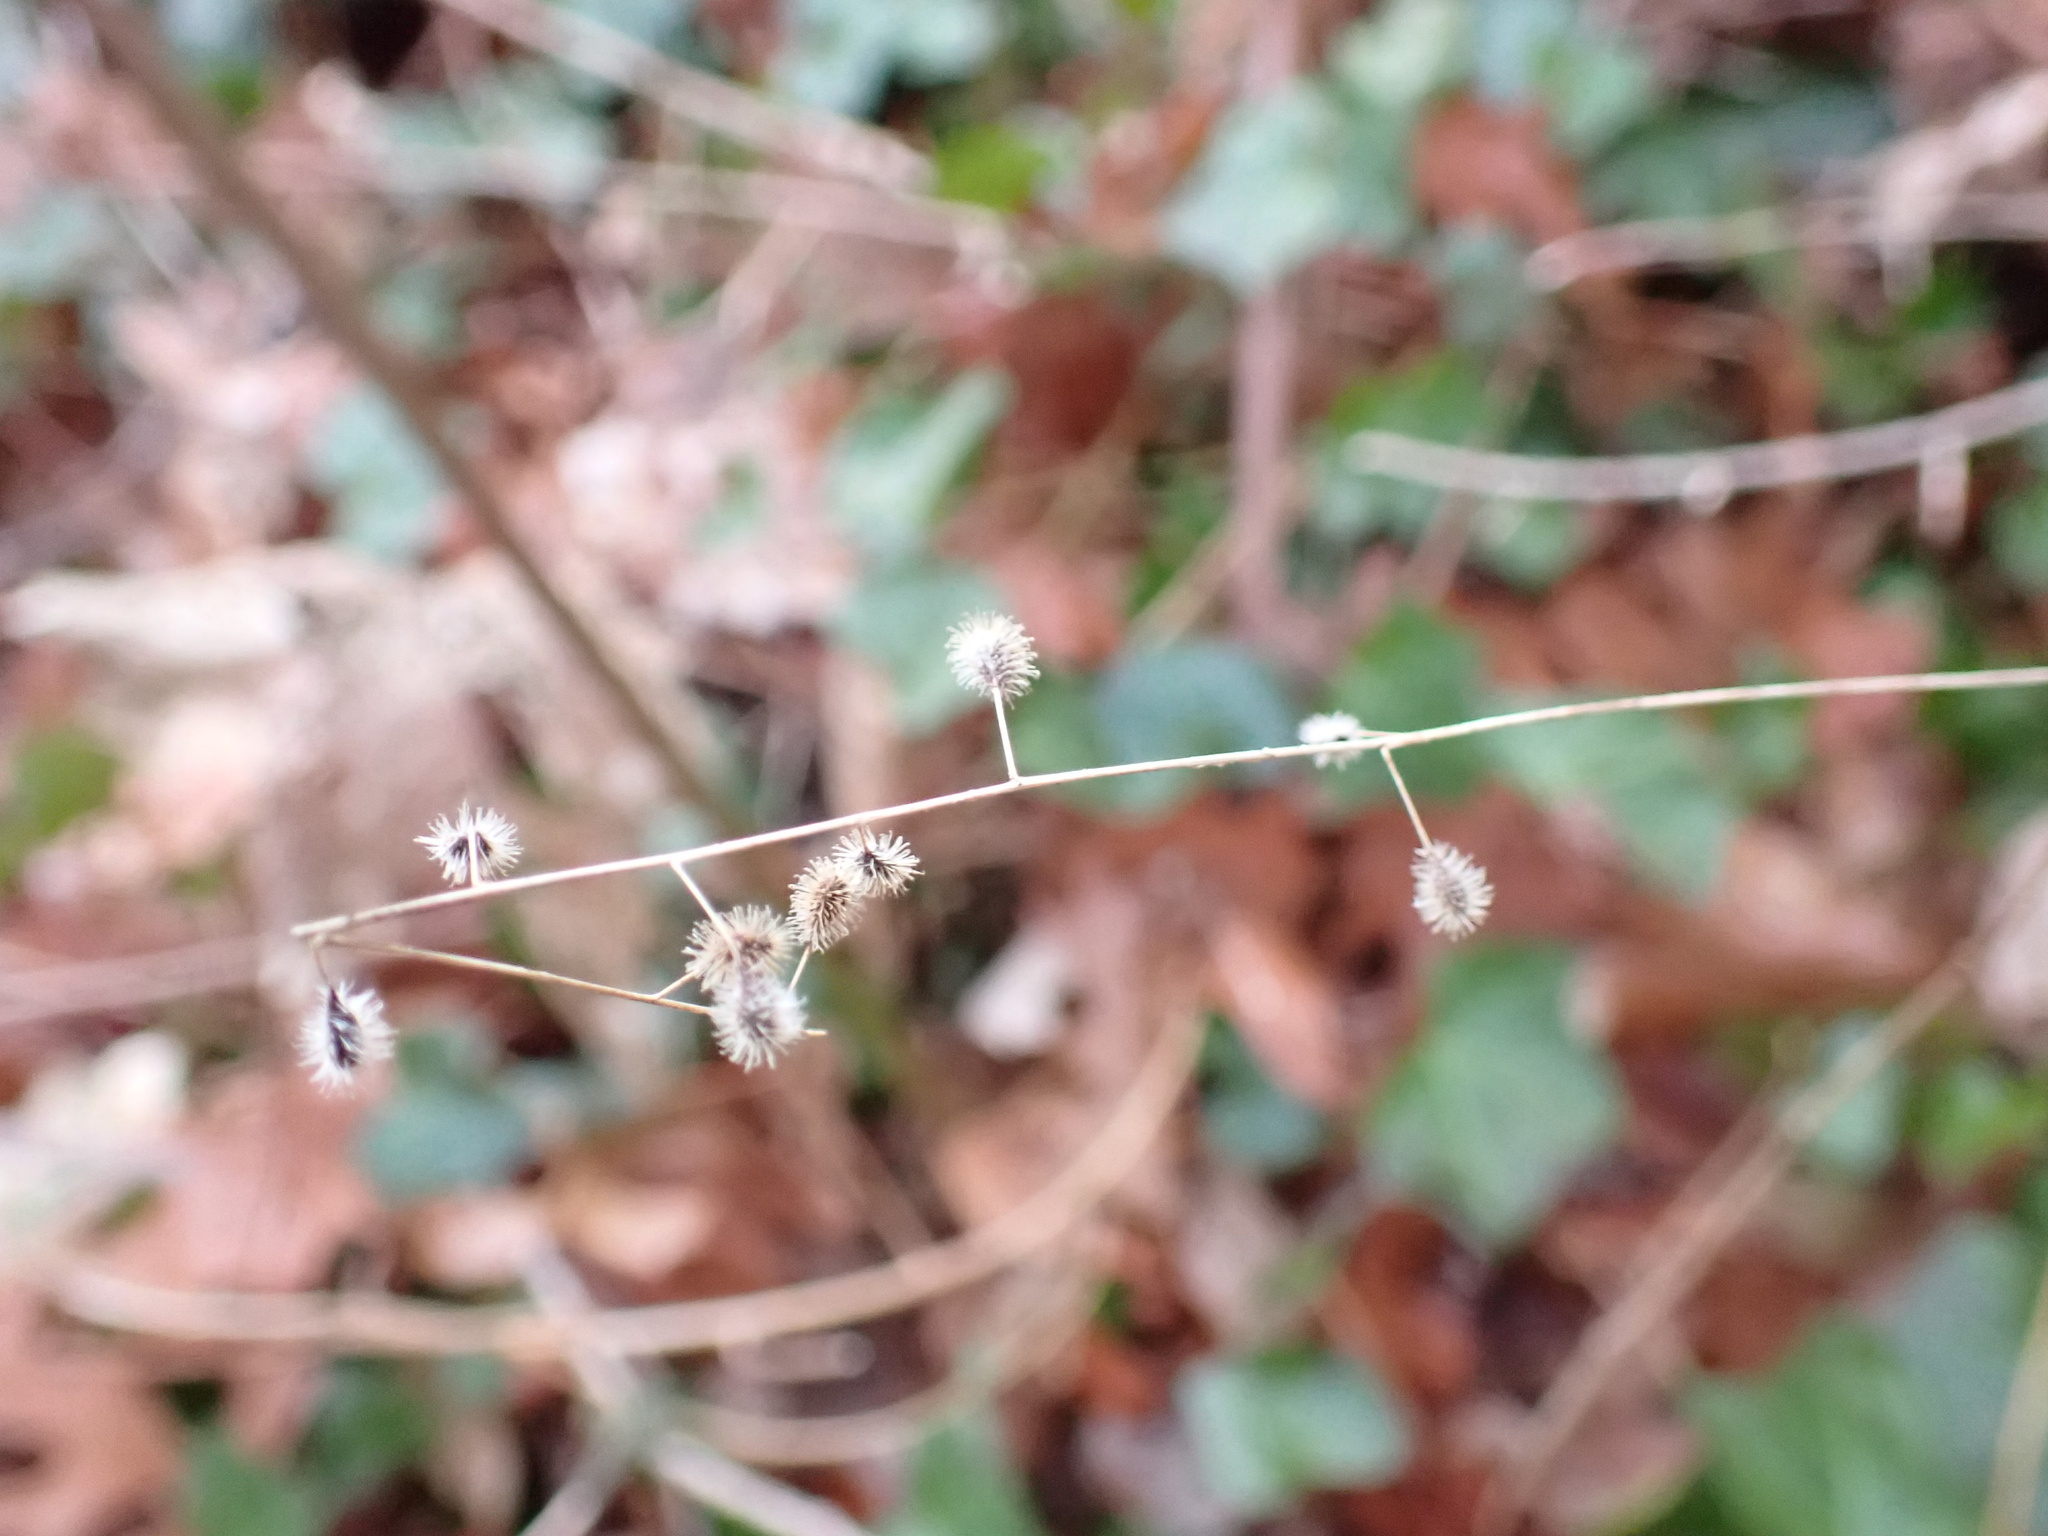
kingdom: Plantae
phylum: Tracheophyta
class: Magnoliopsida
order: Myrtales
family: Onagraceae
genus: Circaea
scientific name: Circaea canadensis
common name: Broad-leaved enchanter's nightshade
